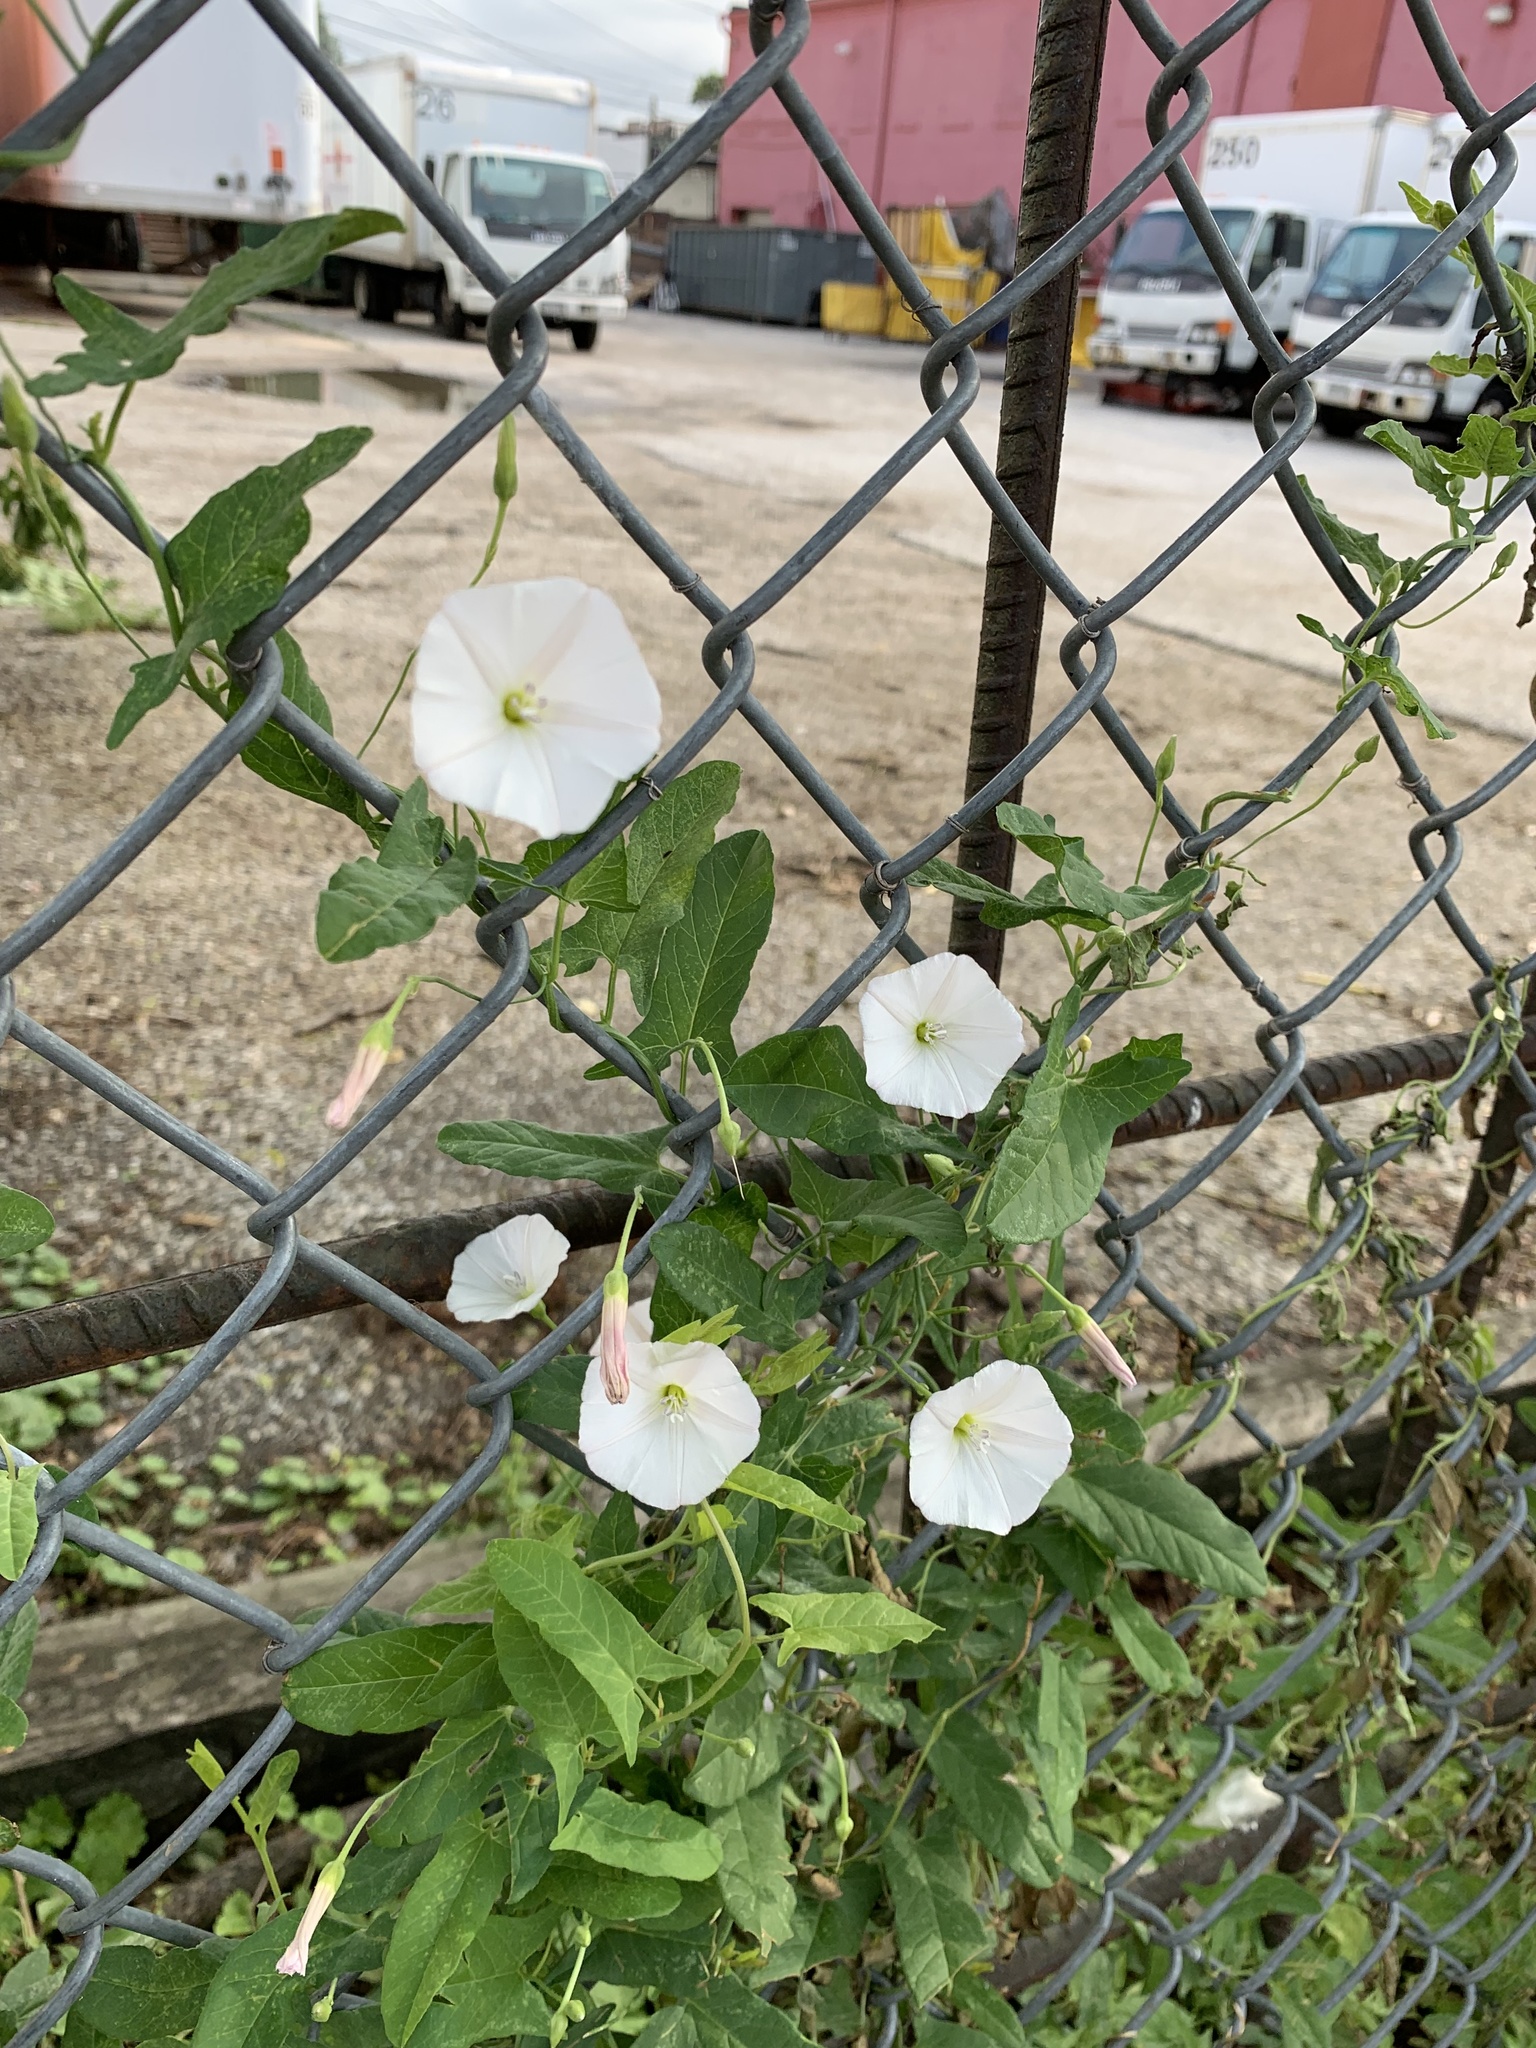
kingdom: Plantae
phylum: Tracheophyta
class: Magnoliopsida
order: Solanales
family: Convolvulaceae
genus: Convolvulus
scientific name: Convolvulus arvensis
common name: Field bindweed
